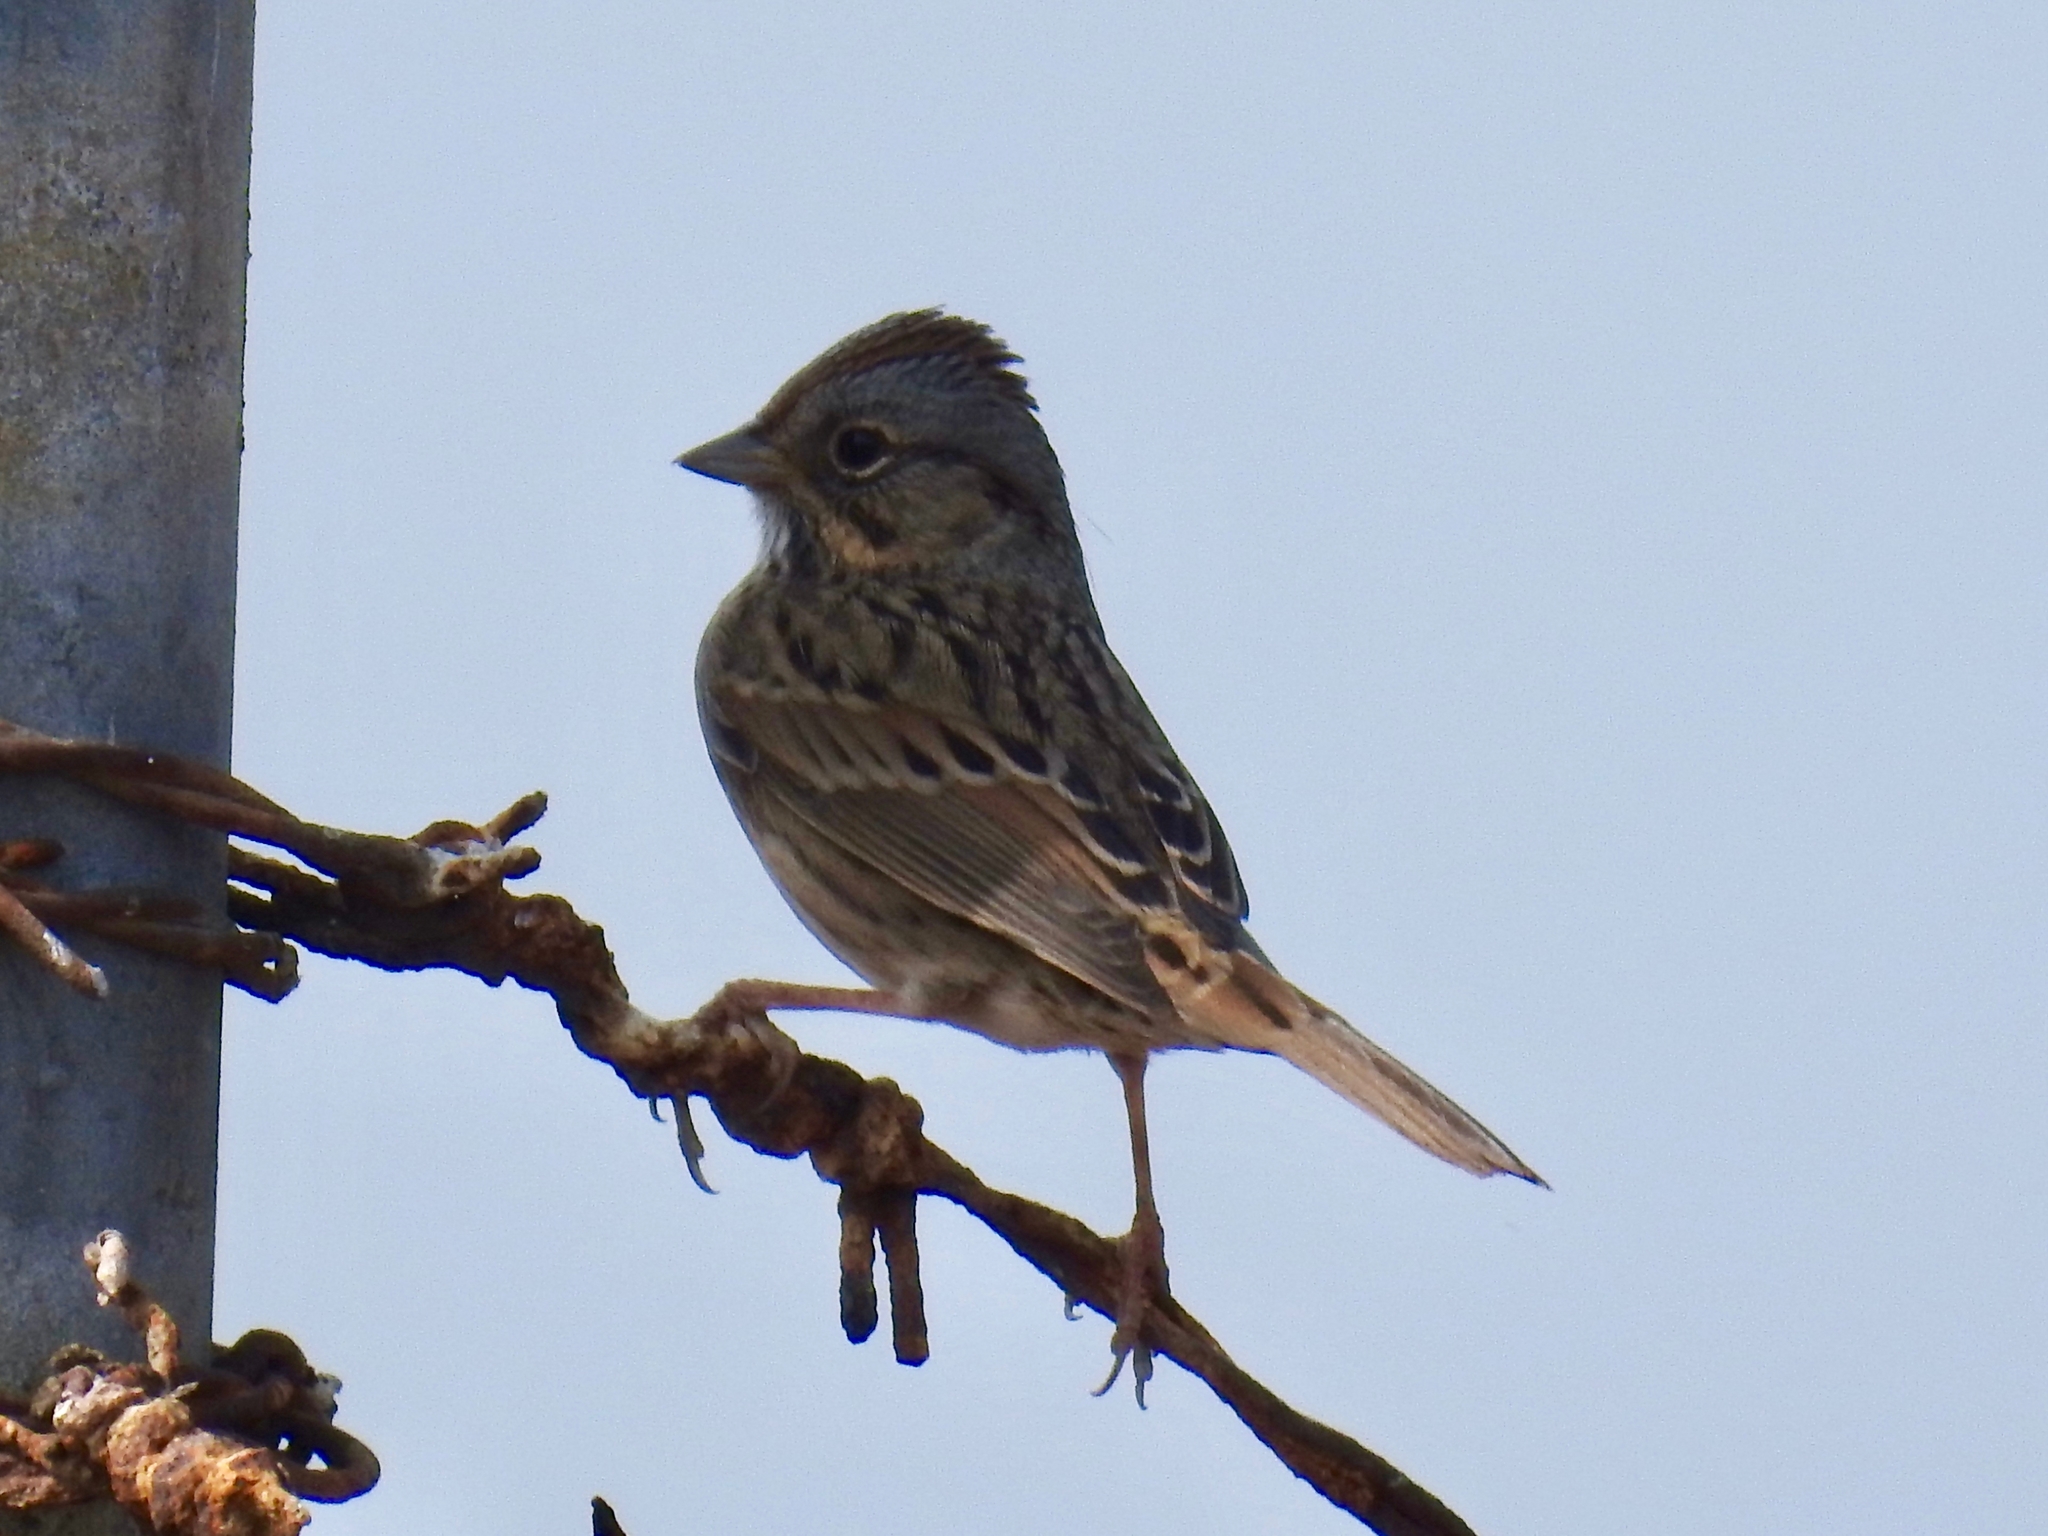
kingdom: Animalia
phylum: Chordata
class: Aves
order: Passeriformes
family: Passerellidae
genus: Melospiza
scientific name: Melospiza lincolnii
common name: Lincoln's sparrow
